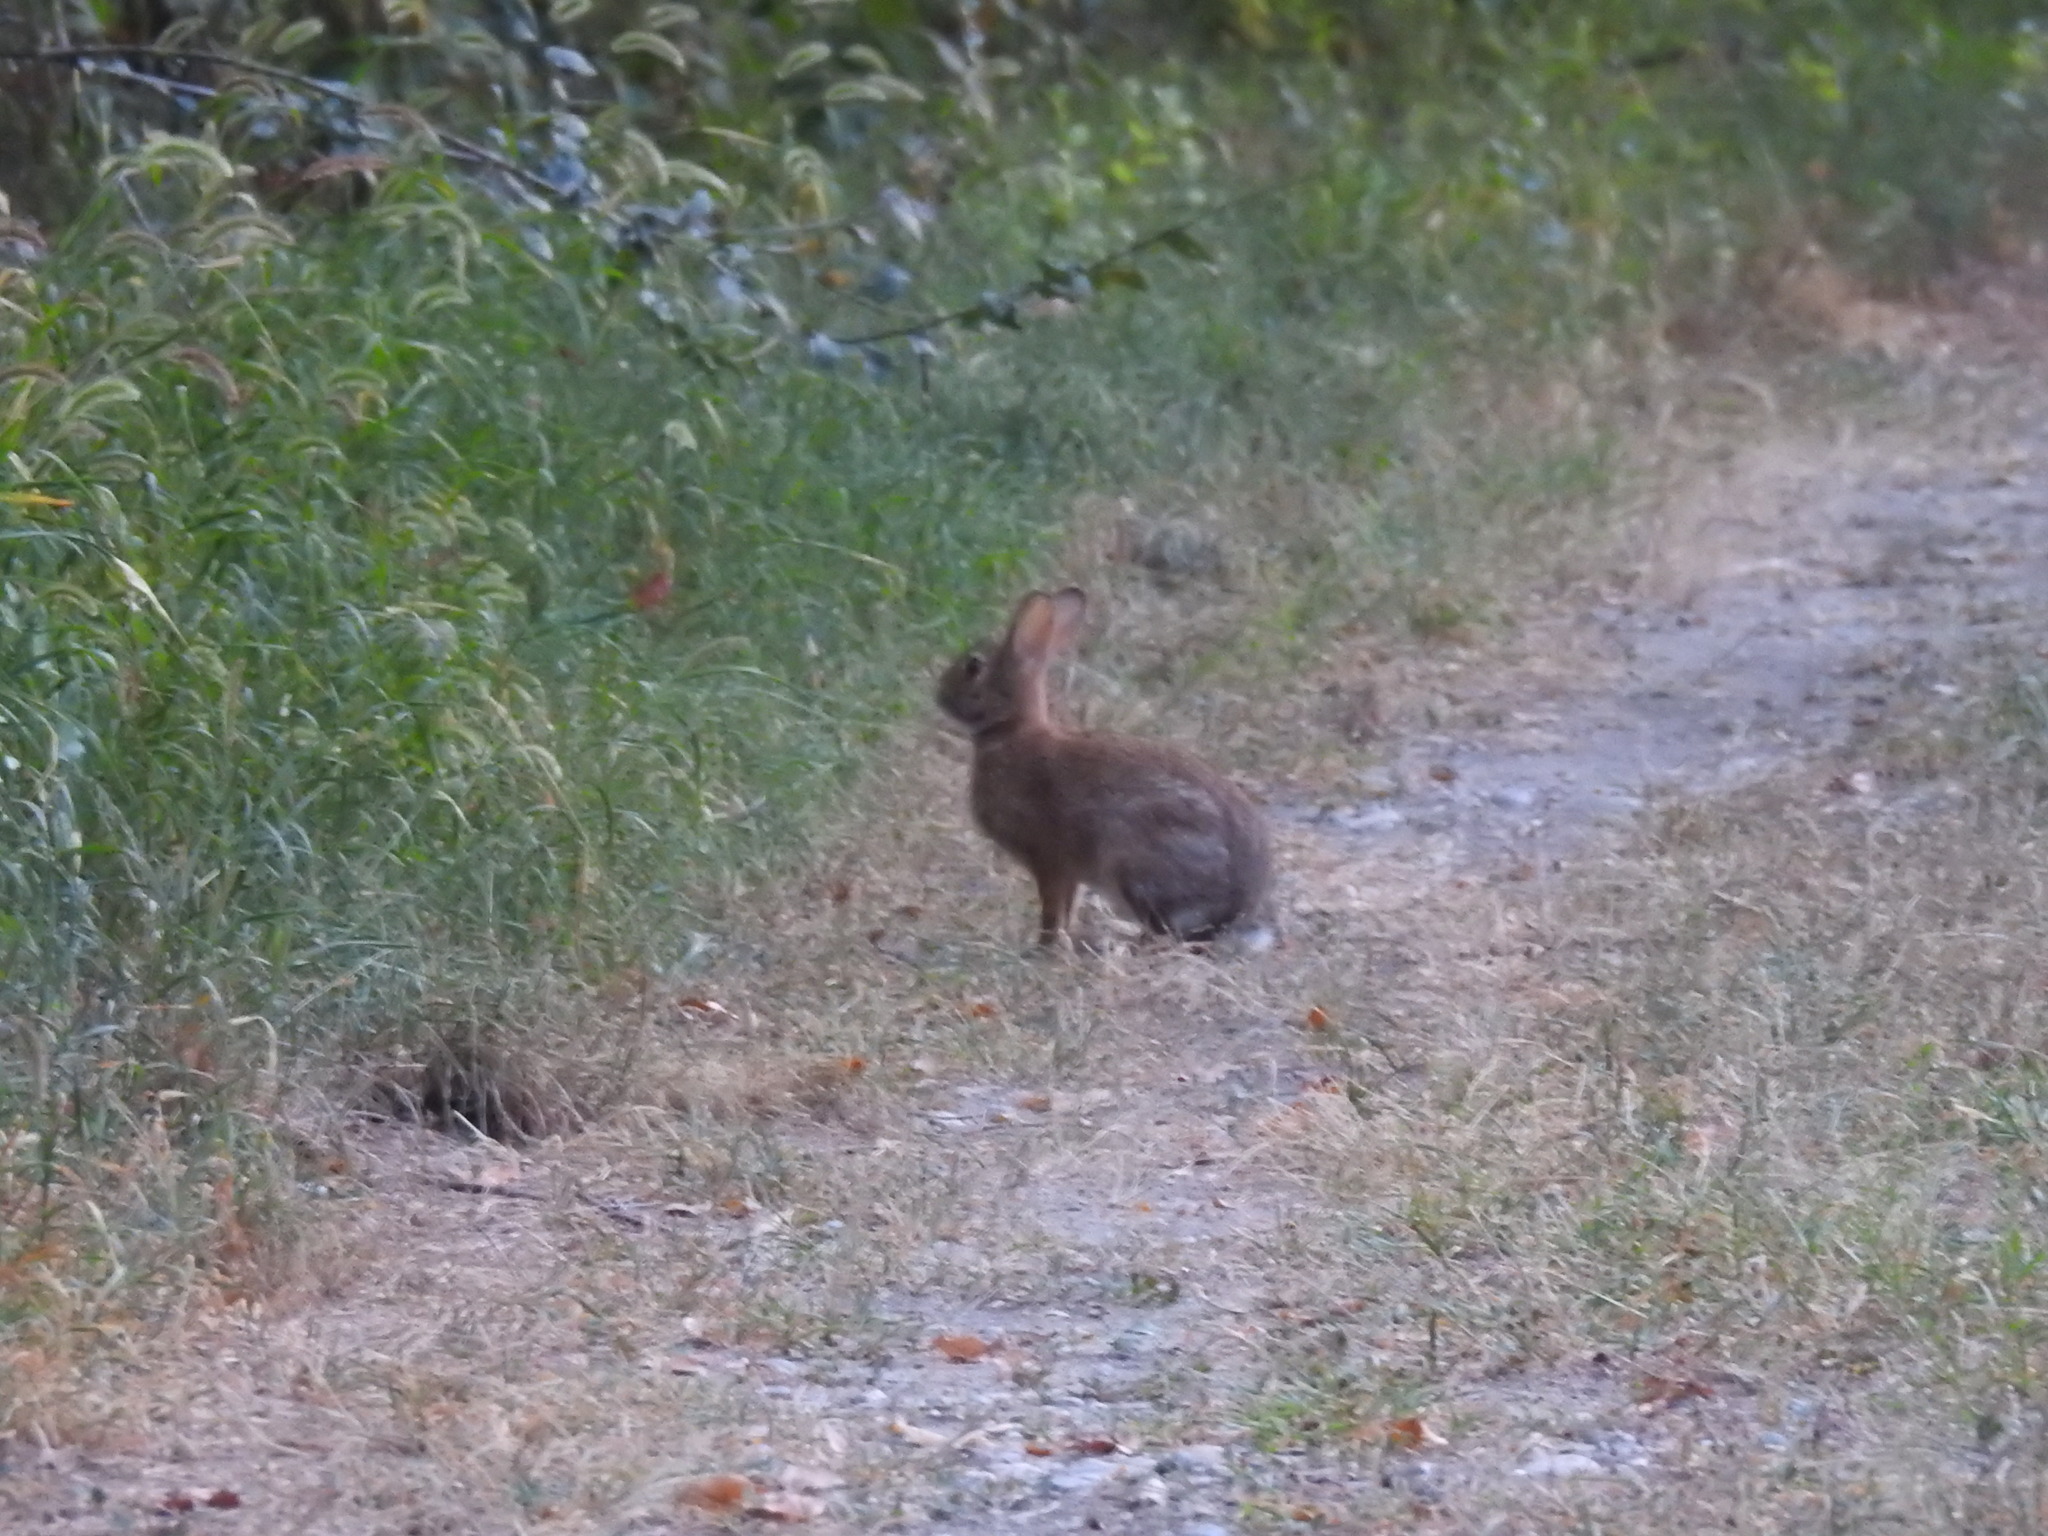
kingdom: Animalia
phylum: Chordata
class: Mammalia
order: Lagomorpha
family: Leporidae
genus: Sylvilagus
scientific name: Sylvilagus floridanus
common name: Eastern cottontail
